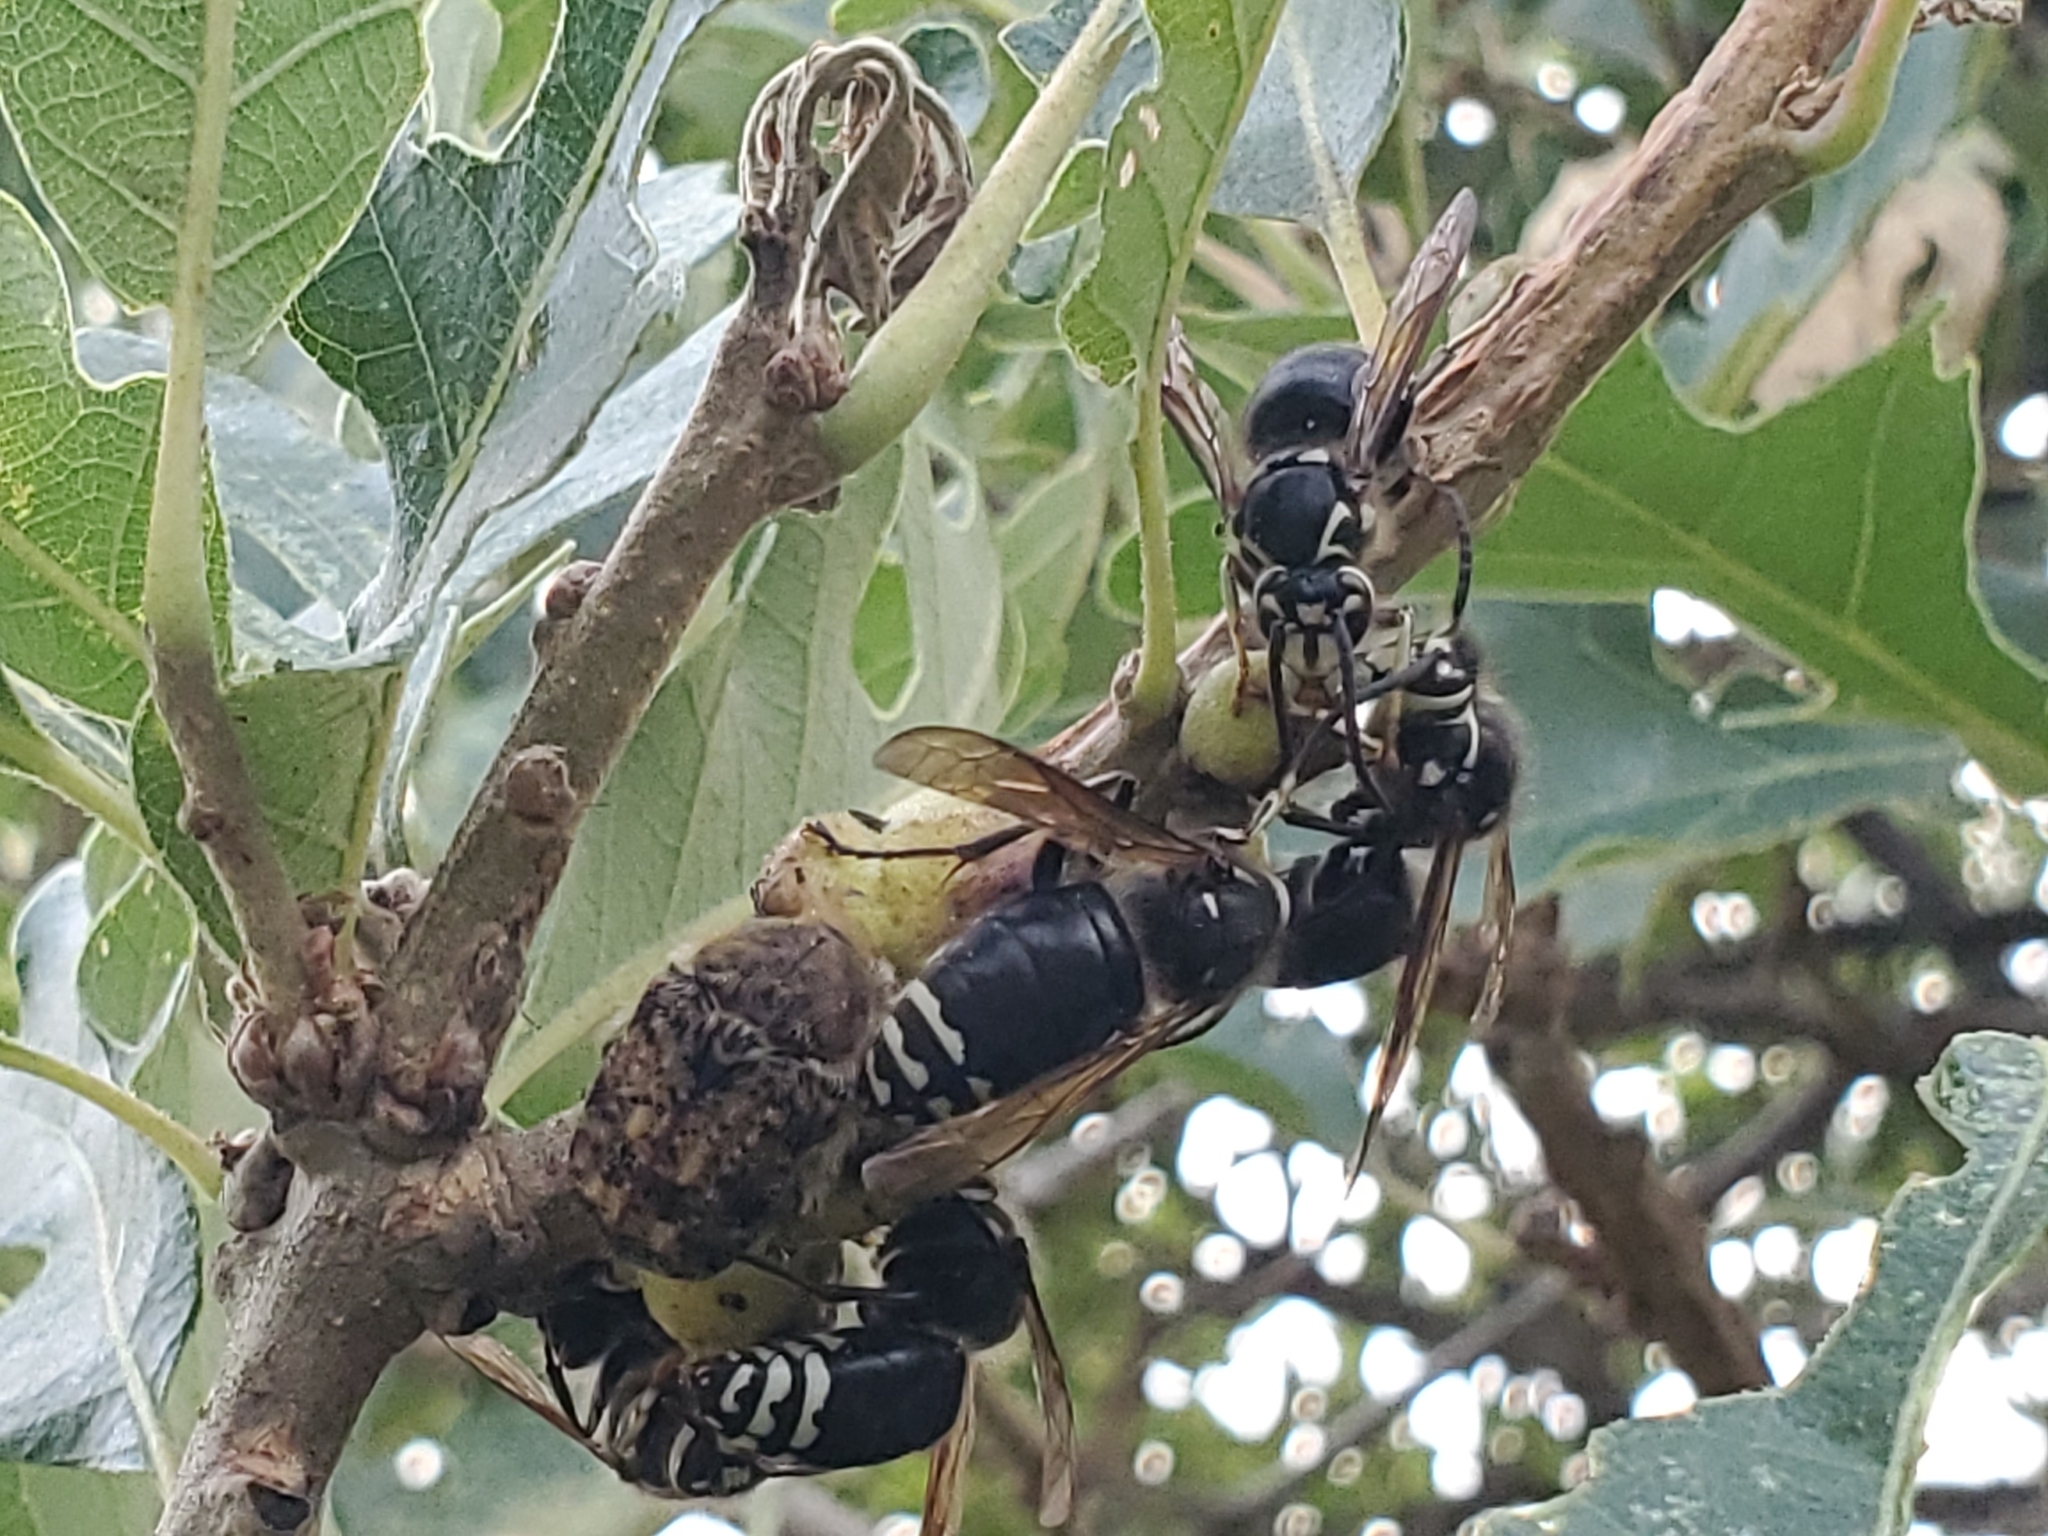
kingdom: Animalia
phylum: Arthropoda
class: Insecta
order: Hymenoptera
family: Vespidae
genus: Dolichovespula
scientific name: Dolichovespula maculata
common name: Bald-faced hornet
